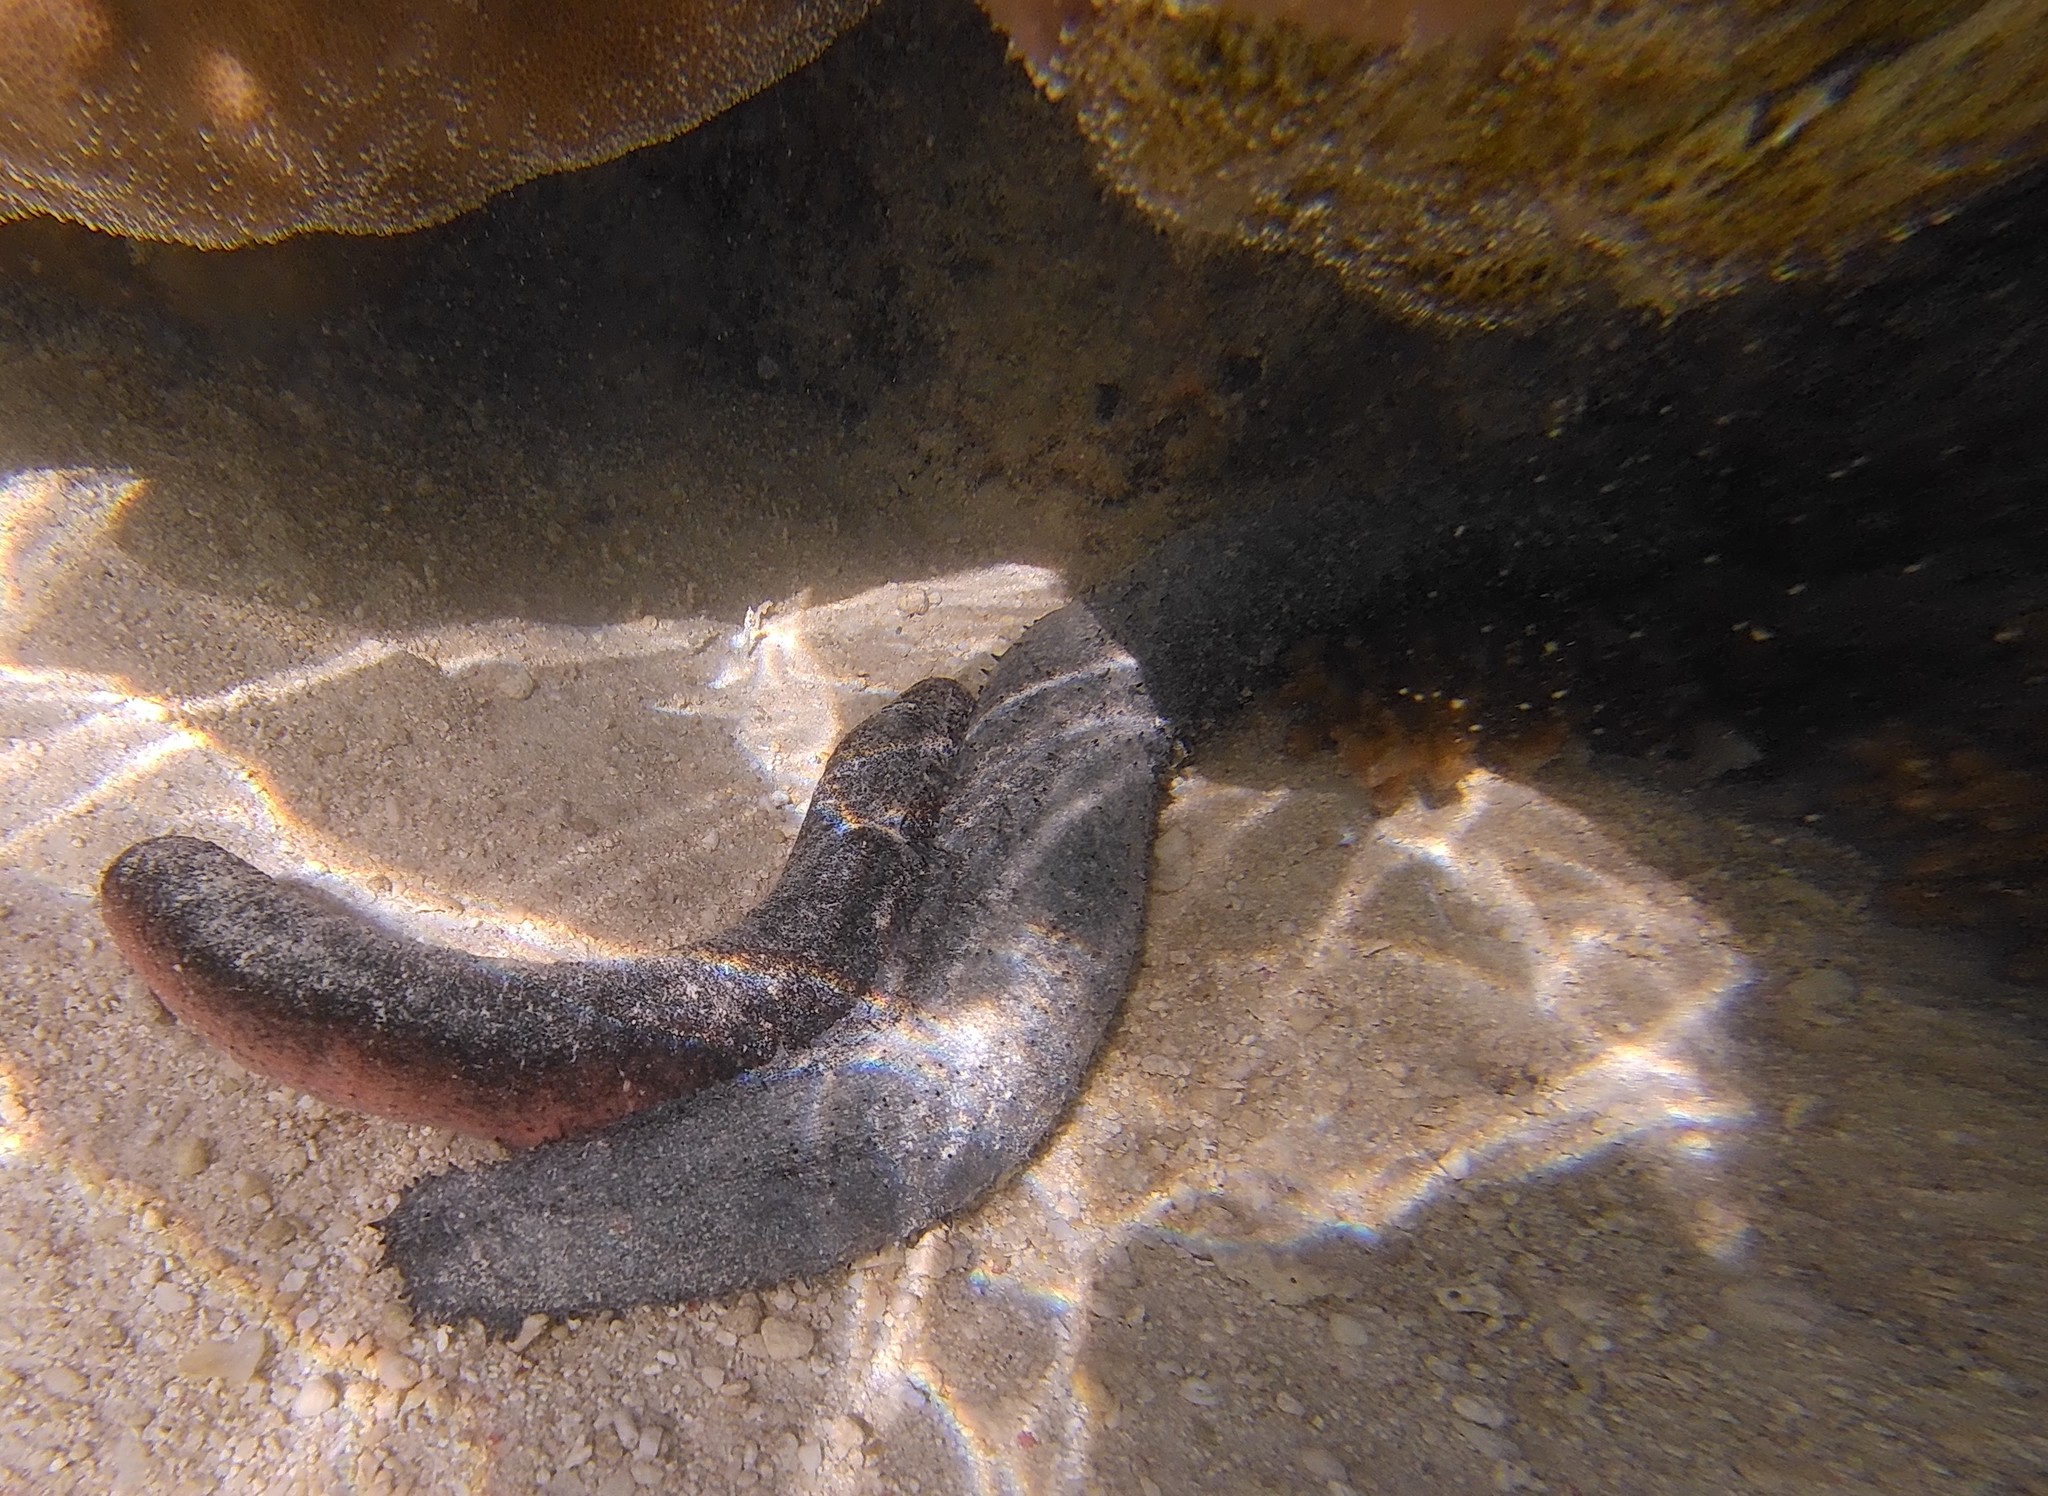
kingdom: Animalia
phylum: Echinodermata
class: Holothuroidea
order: Holothuriida
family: Holothuriidae
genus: Holothuria
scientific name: Holothuria leucospilota
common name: White thread fish
